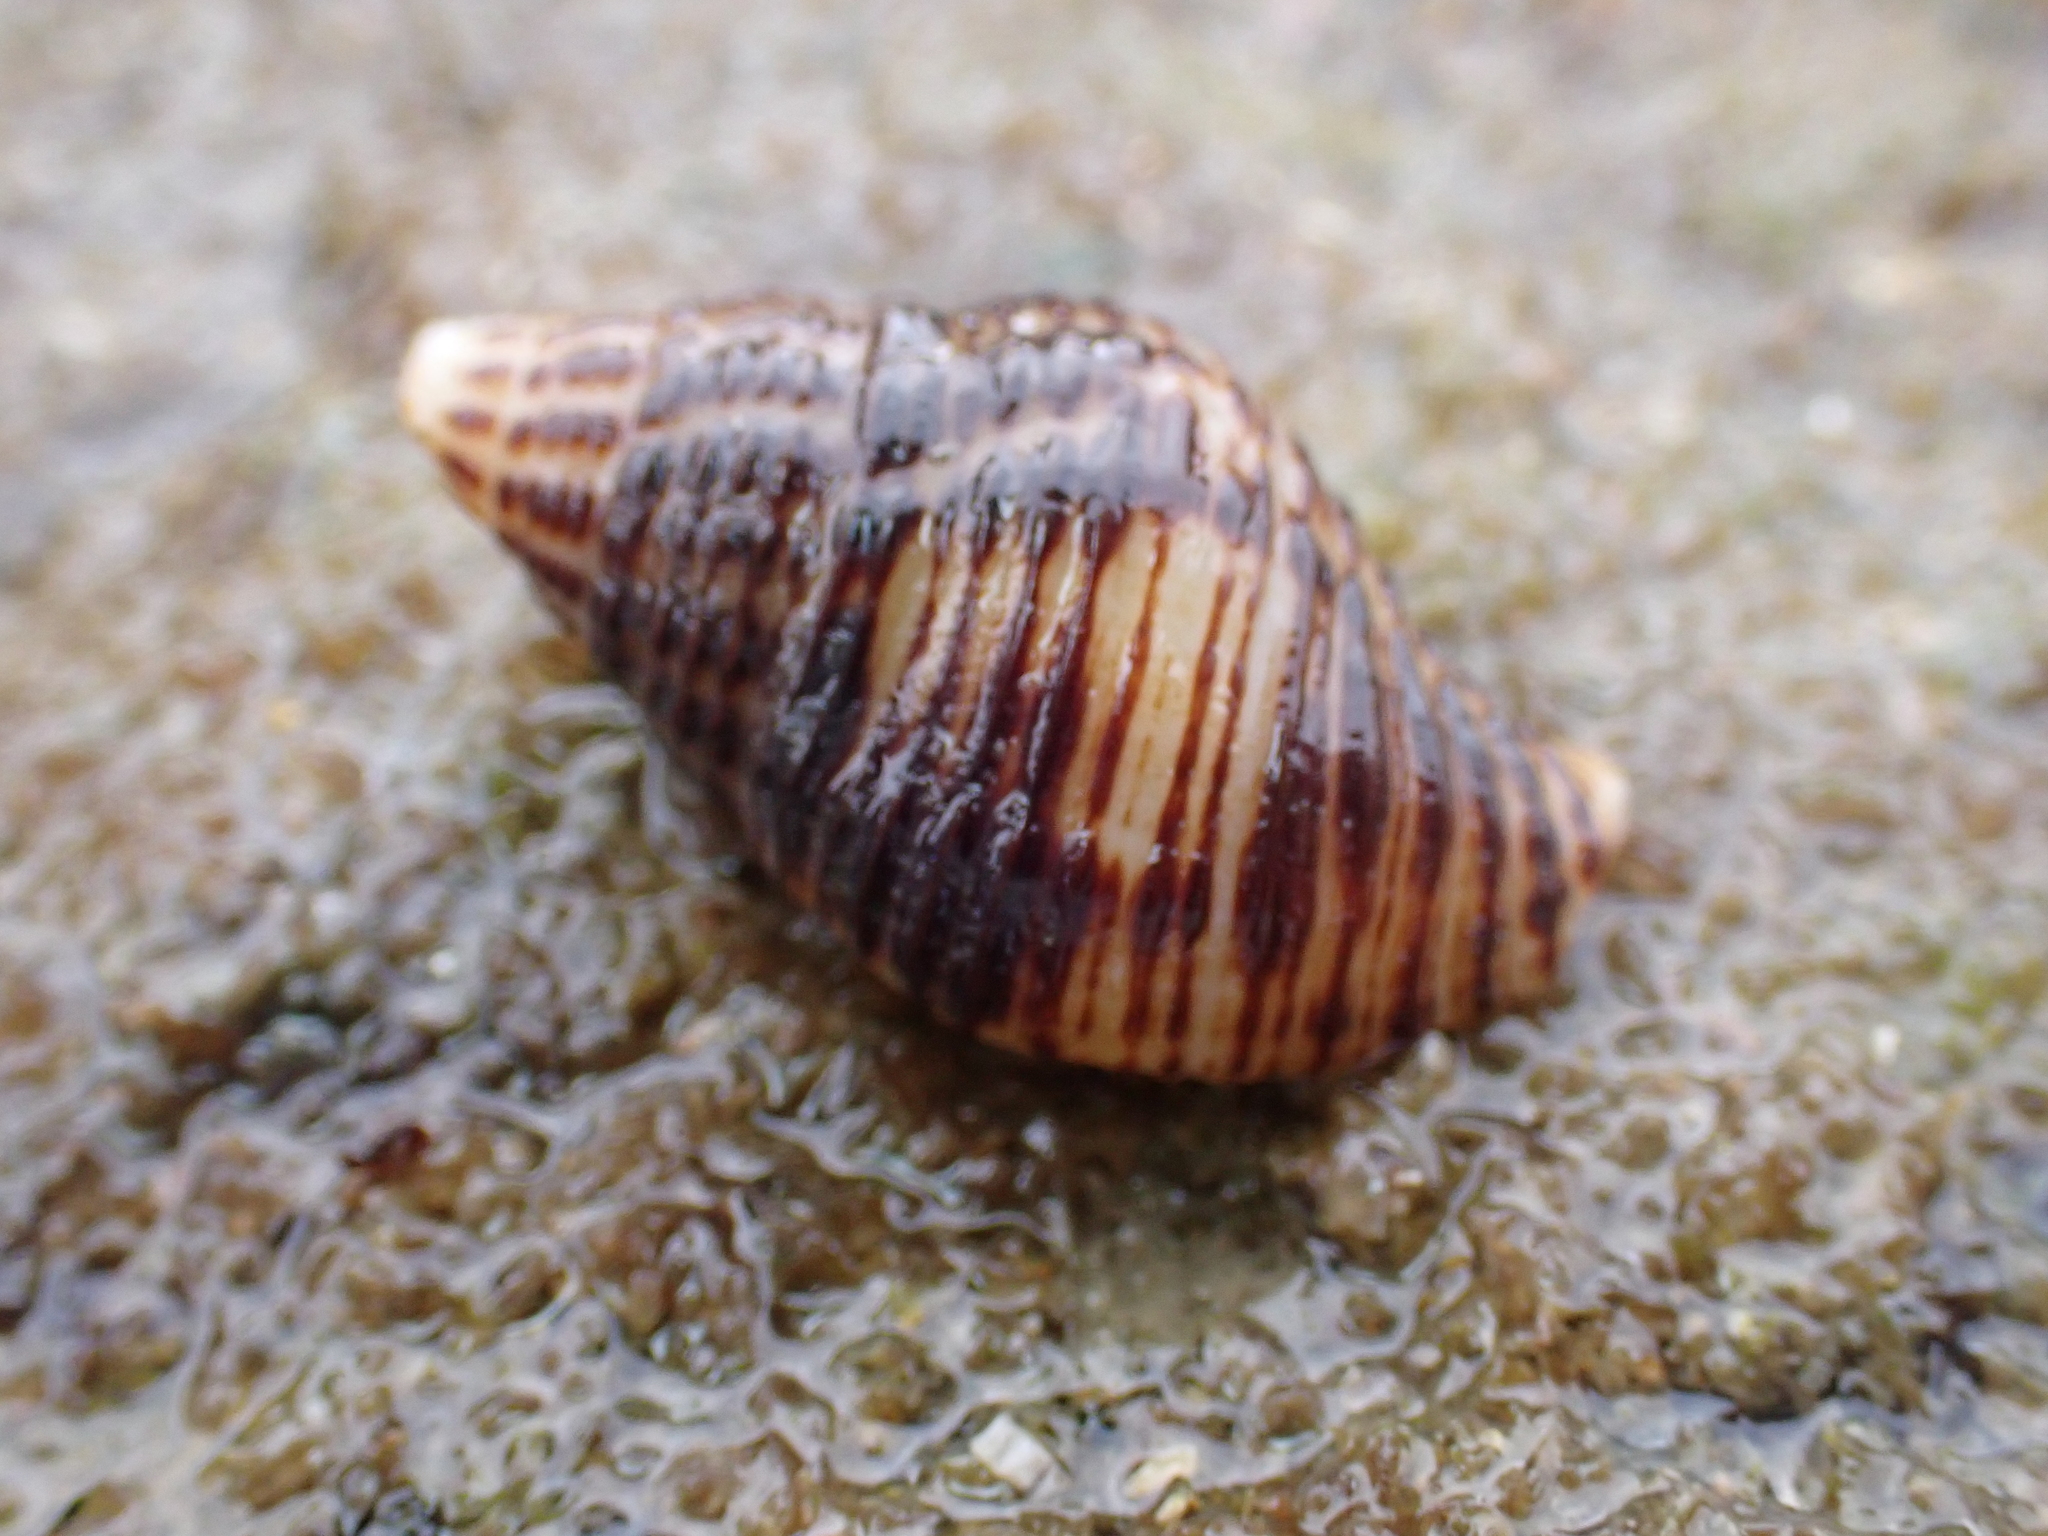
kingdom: Animalia
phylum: Mollusca
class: Gastropoda
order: Neogastropoda
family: Pisaniidae
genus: Pollia
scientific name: Pollia fumosa
